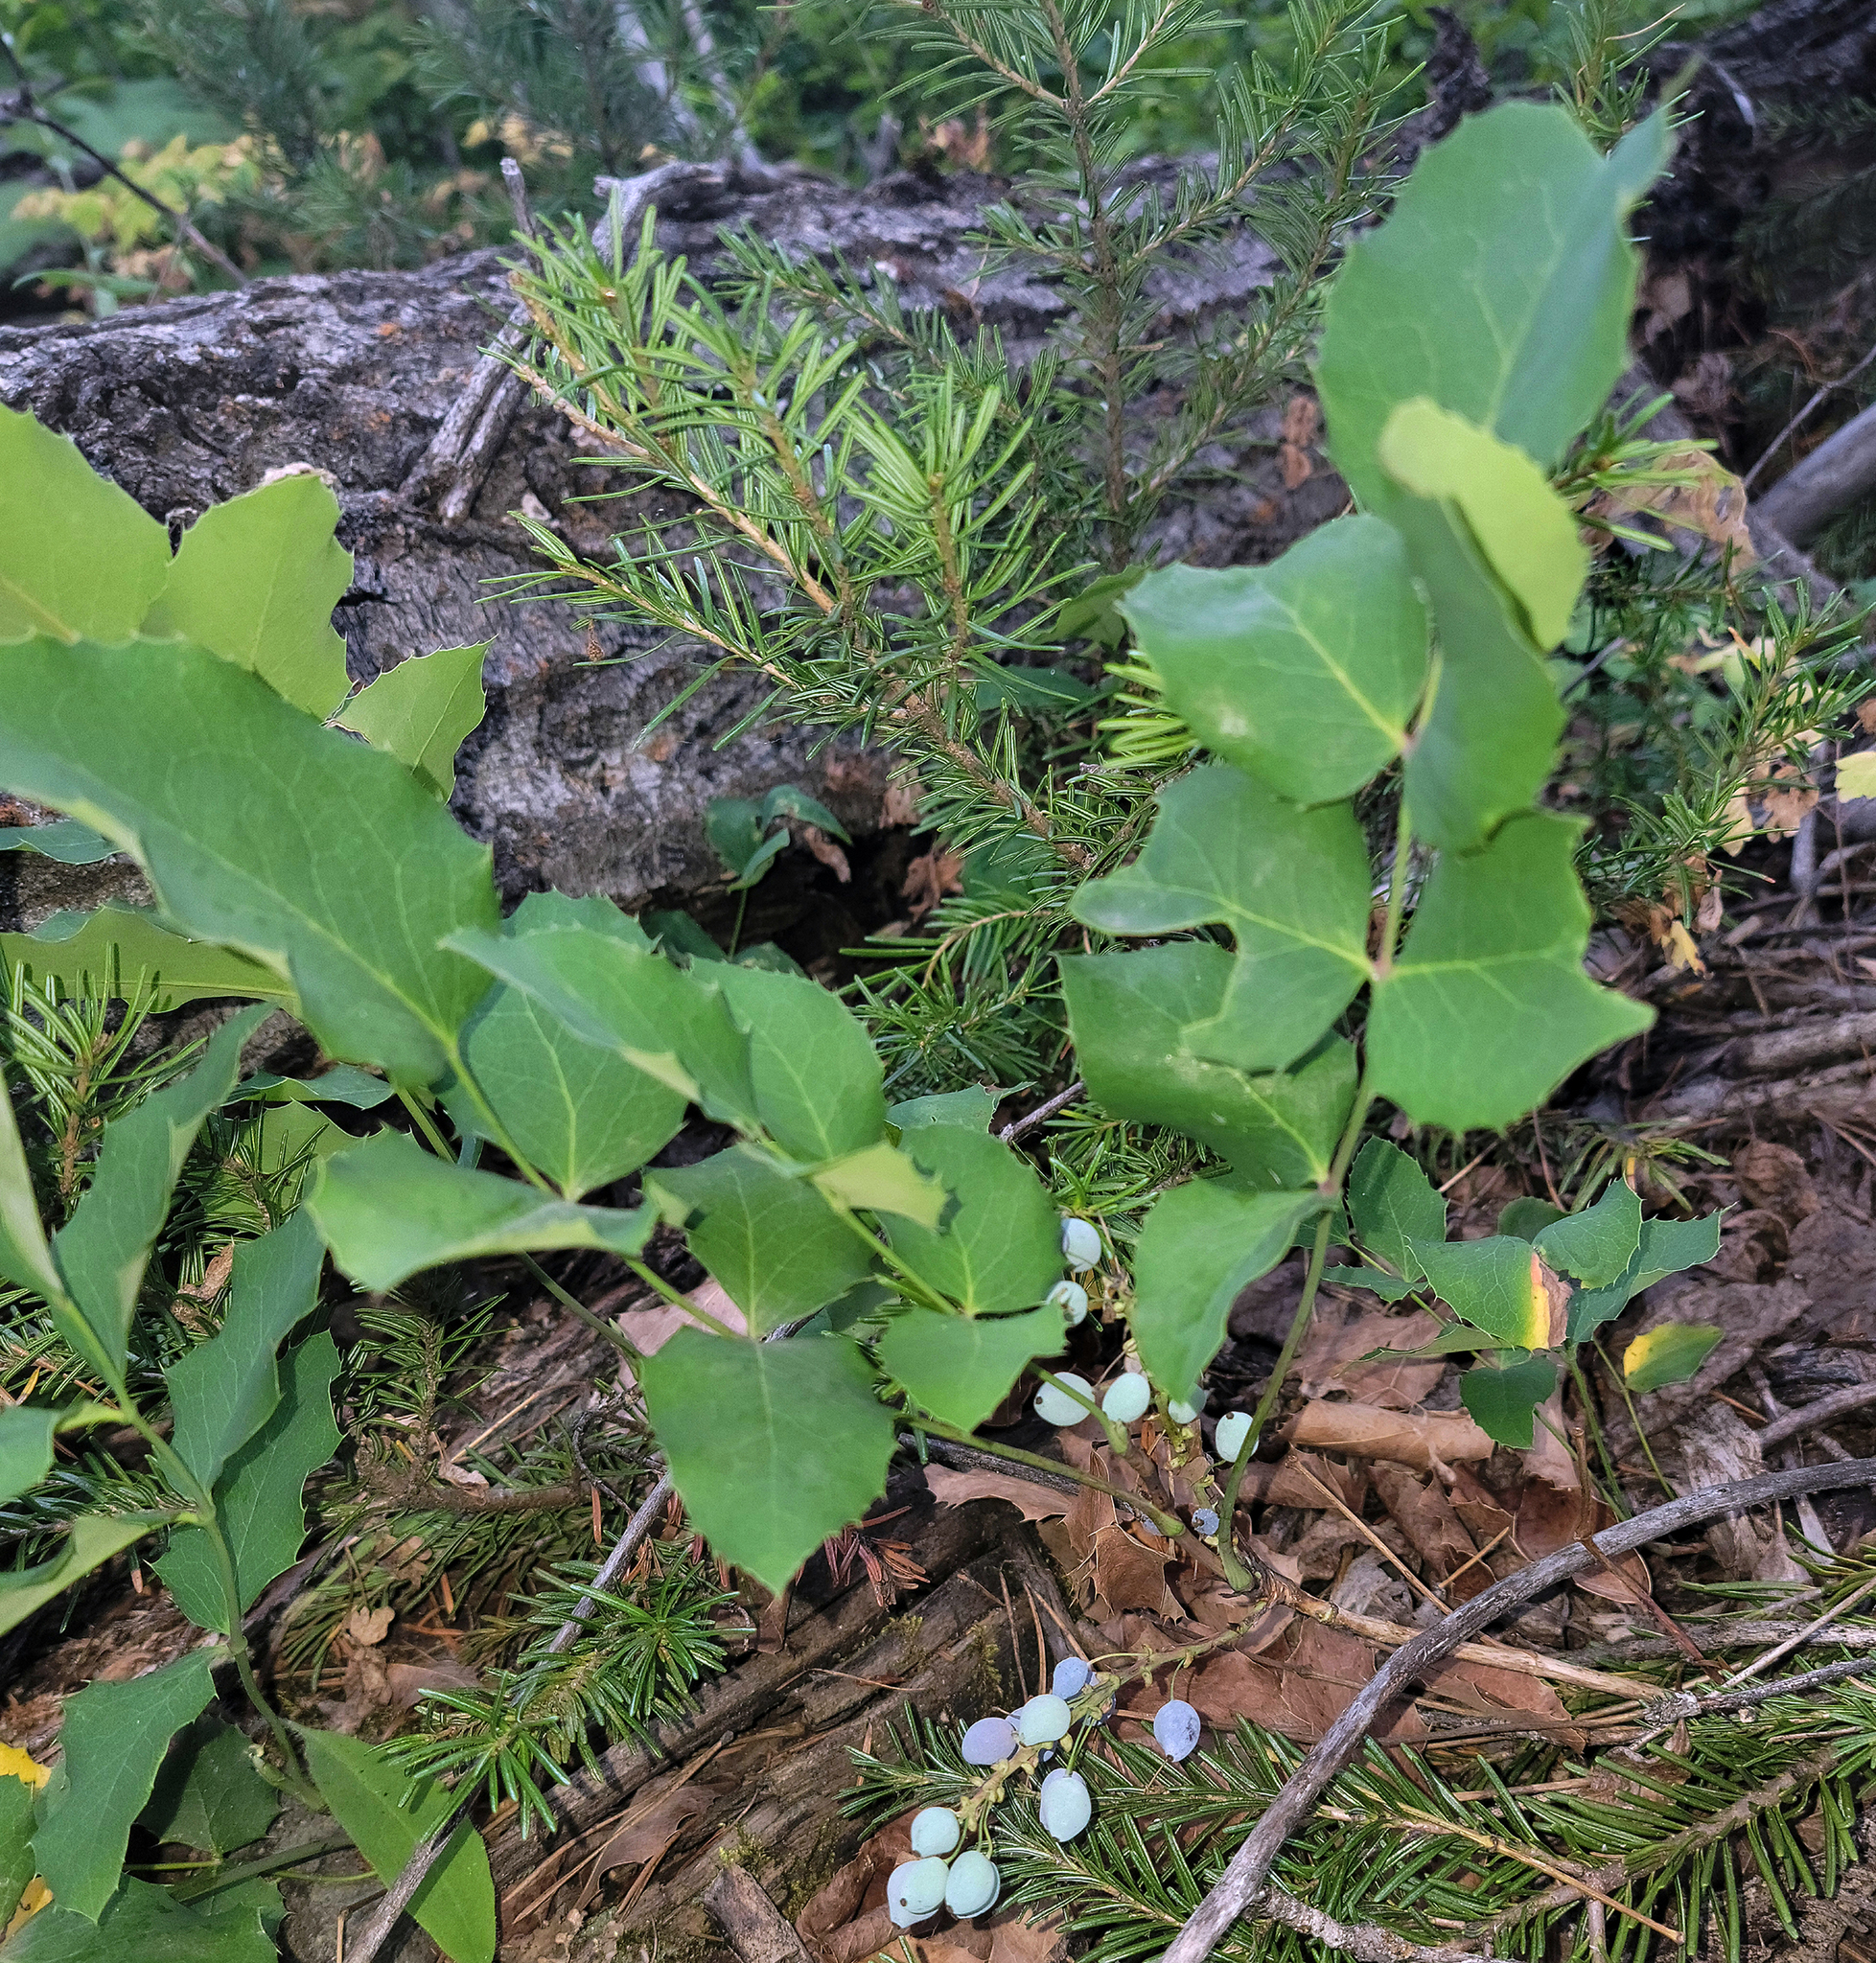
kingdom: Plantae
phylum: Tracheophyta
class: Magnoliopsida
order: Ranunculales
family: Berberidaceae
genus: Mahonia
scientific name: Mahonia repens
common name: Creeping oregon-grape
